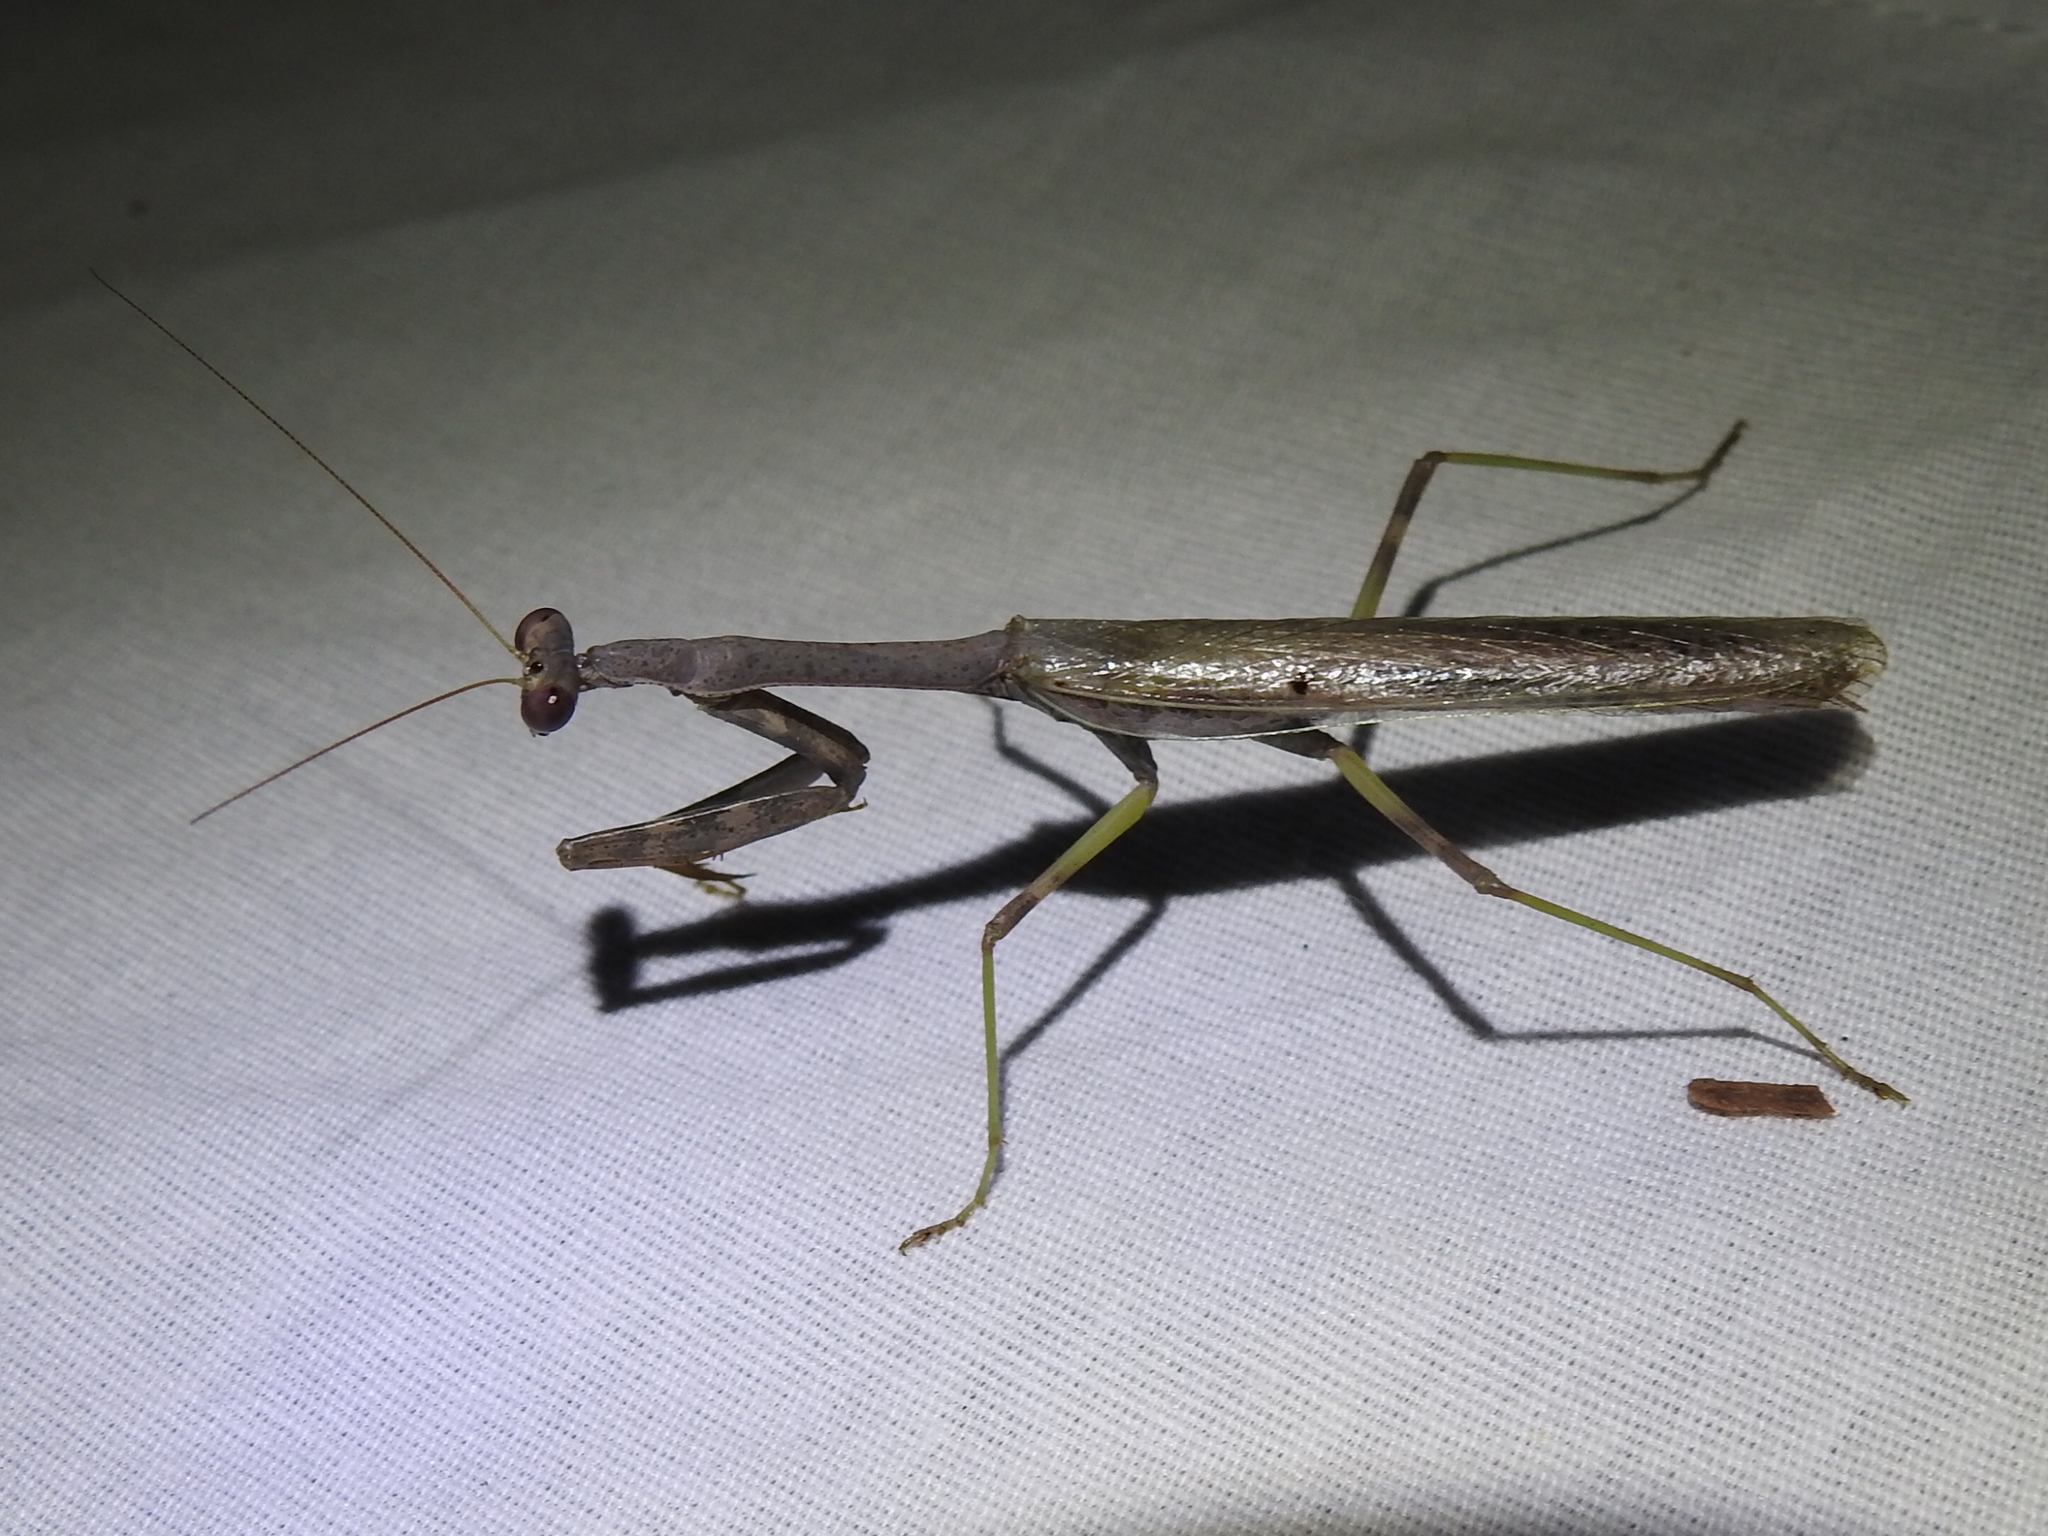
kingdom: Animalia
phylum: Arthropoda
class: Insecta
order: Mantodea
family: Mantidae
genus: Stagmomantis
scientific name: Stagmomantis carolina
